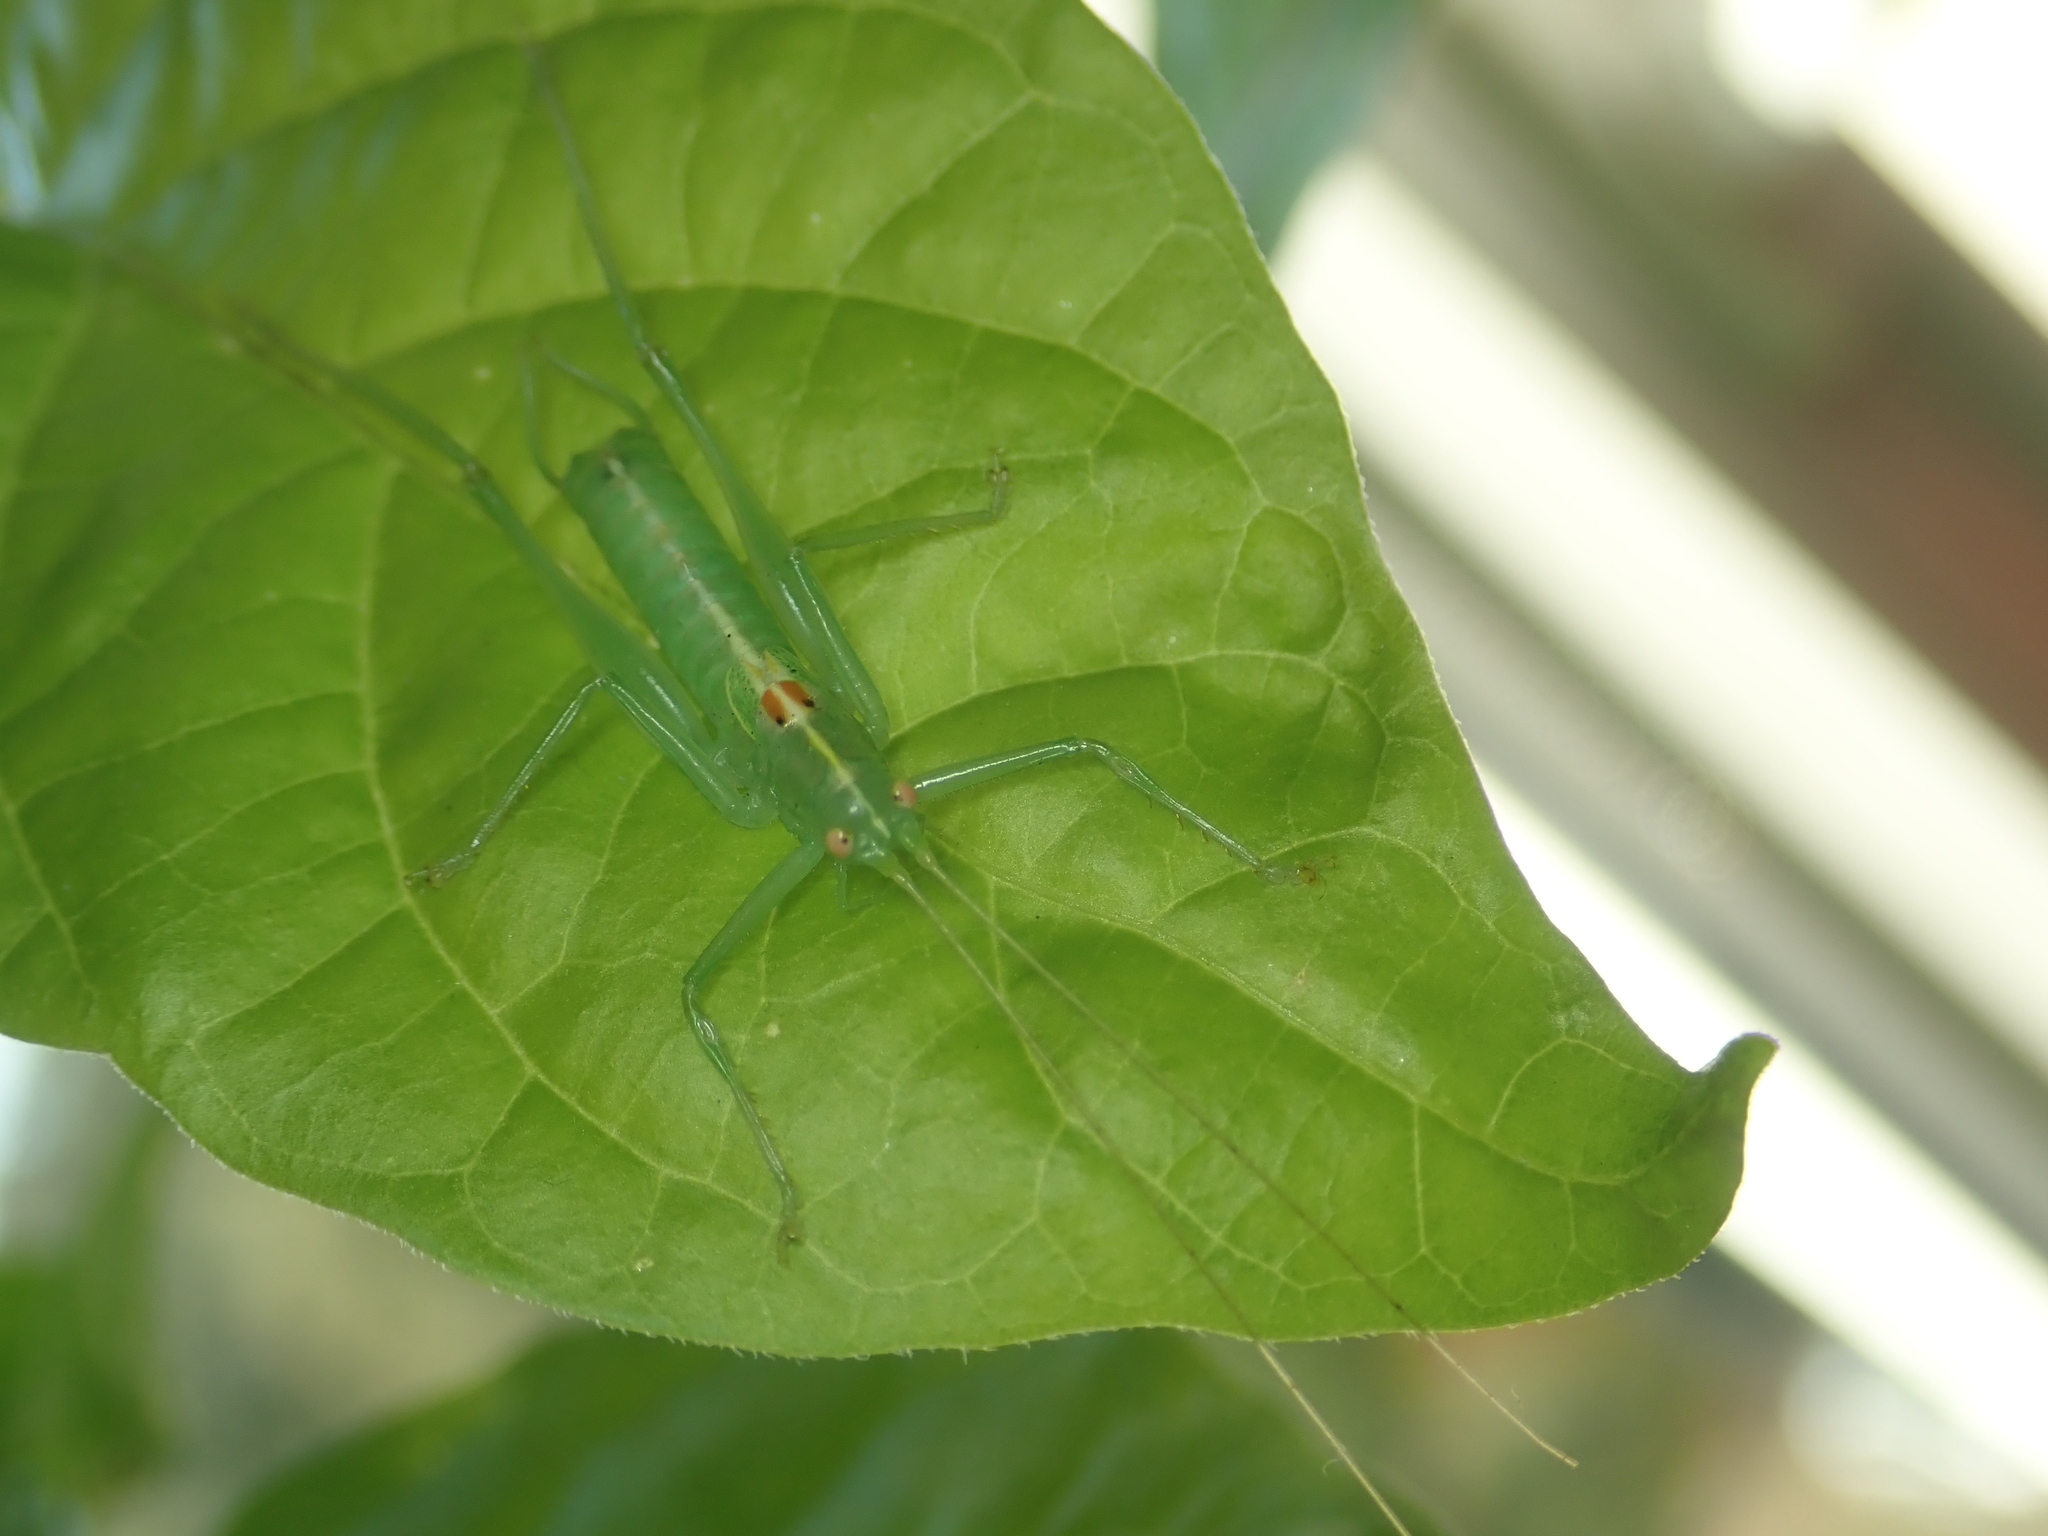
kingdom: Animalia
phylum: Arthropoda
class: Insecta
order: Orthoptera
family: Tettigoniidae
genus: Meconema
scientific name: Meconema meridionale
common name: Southern oak bush-cricket
